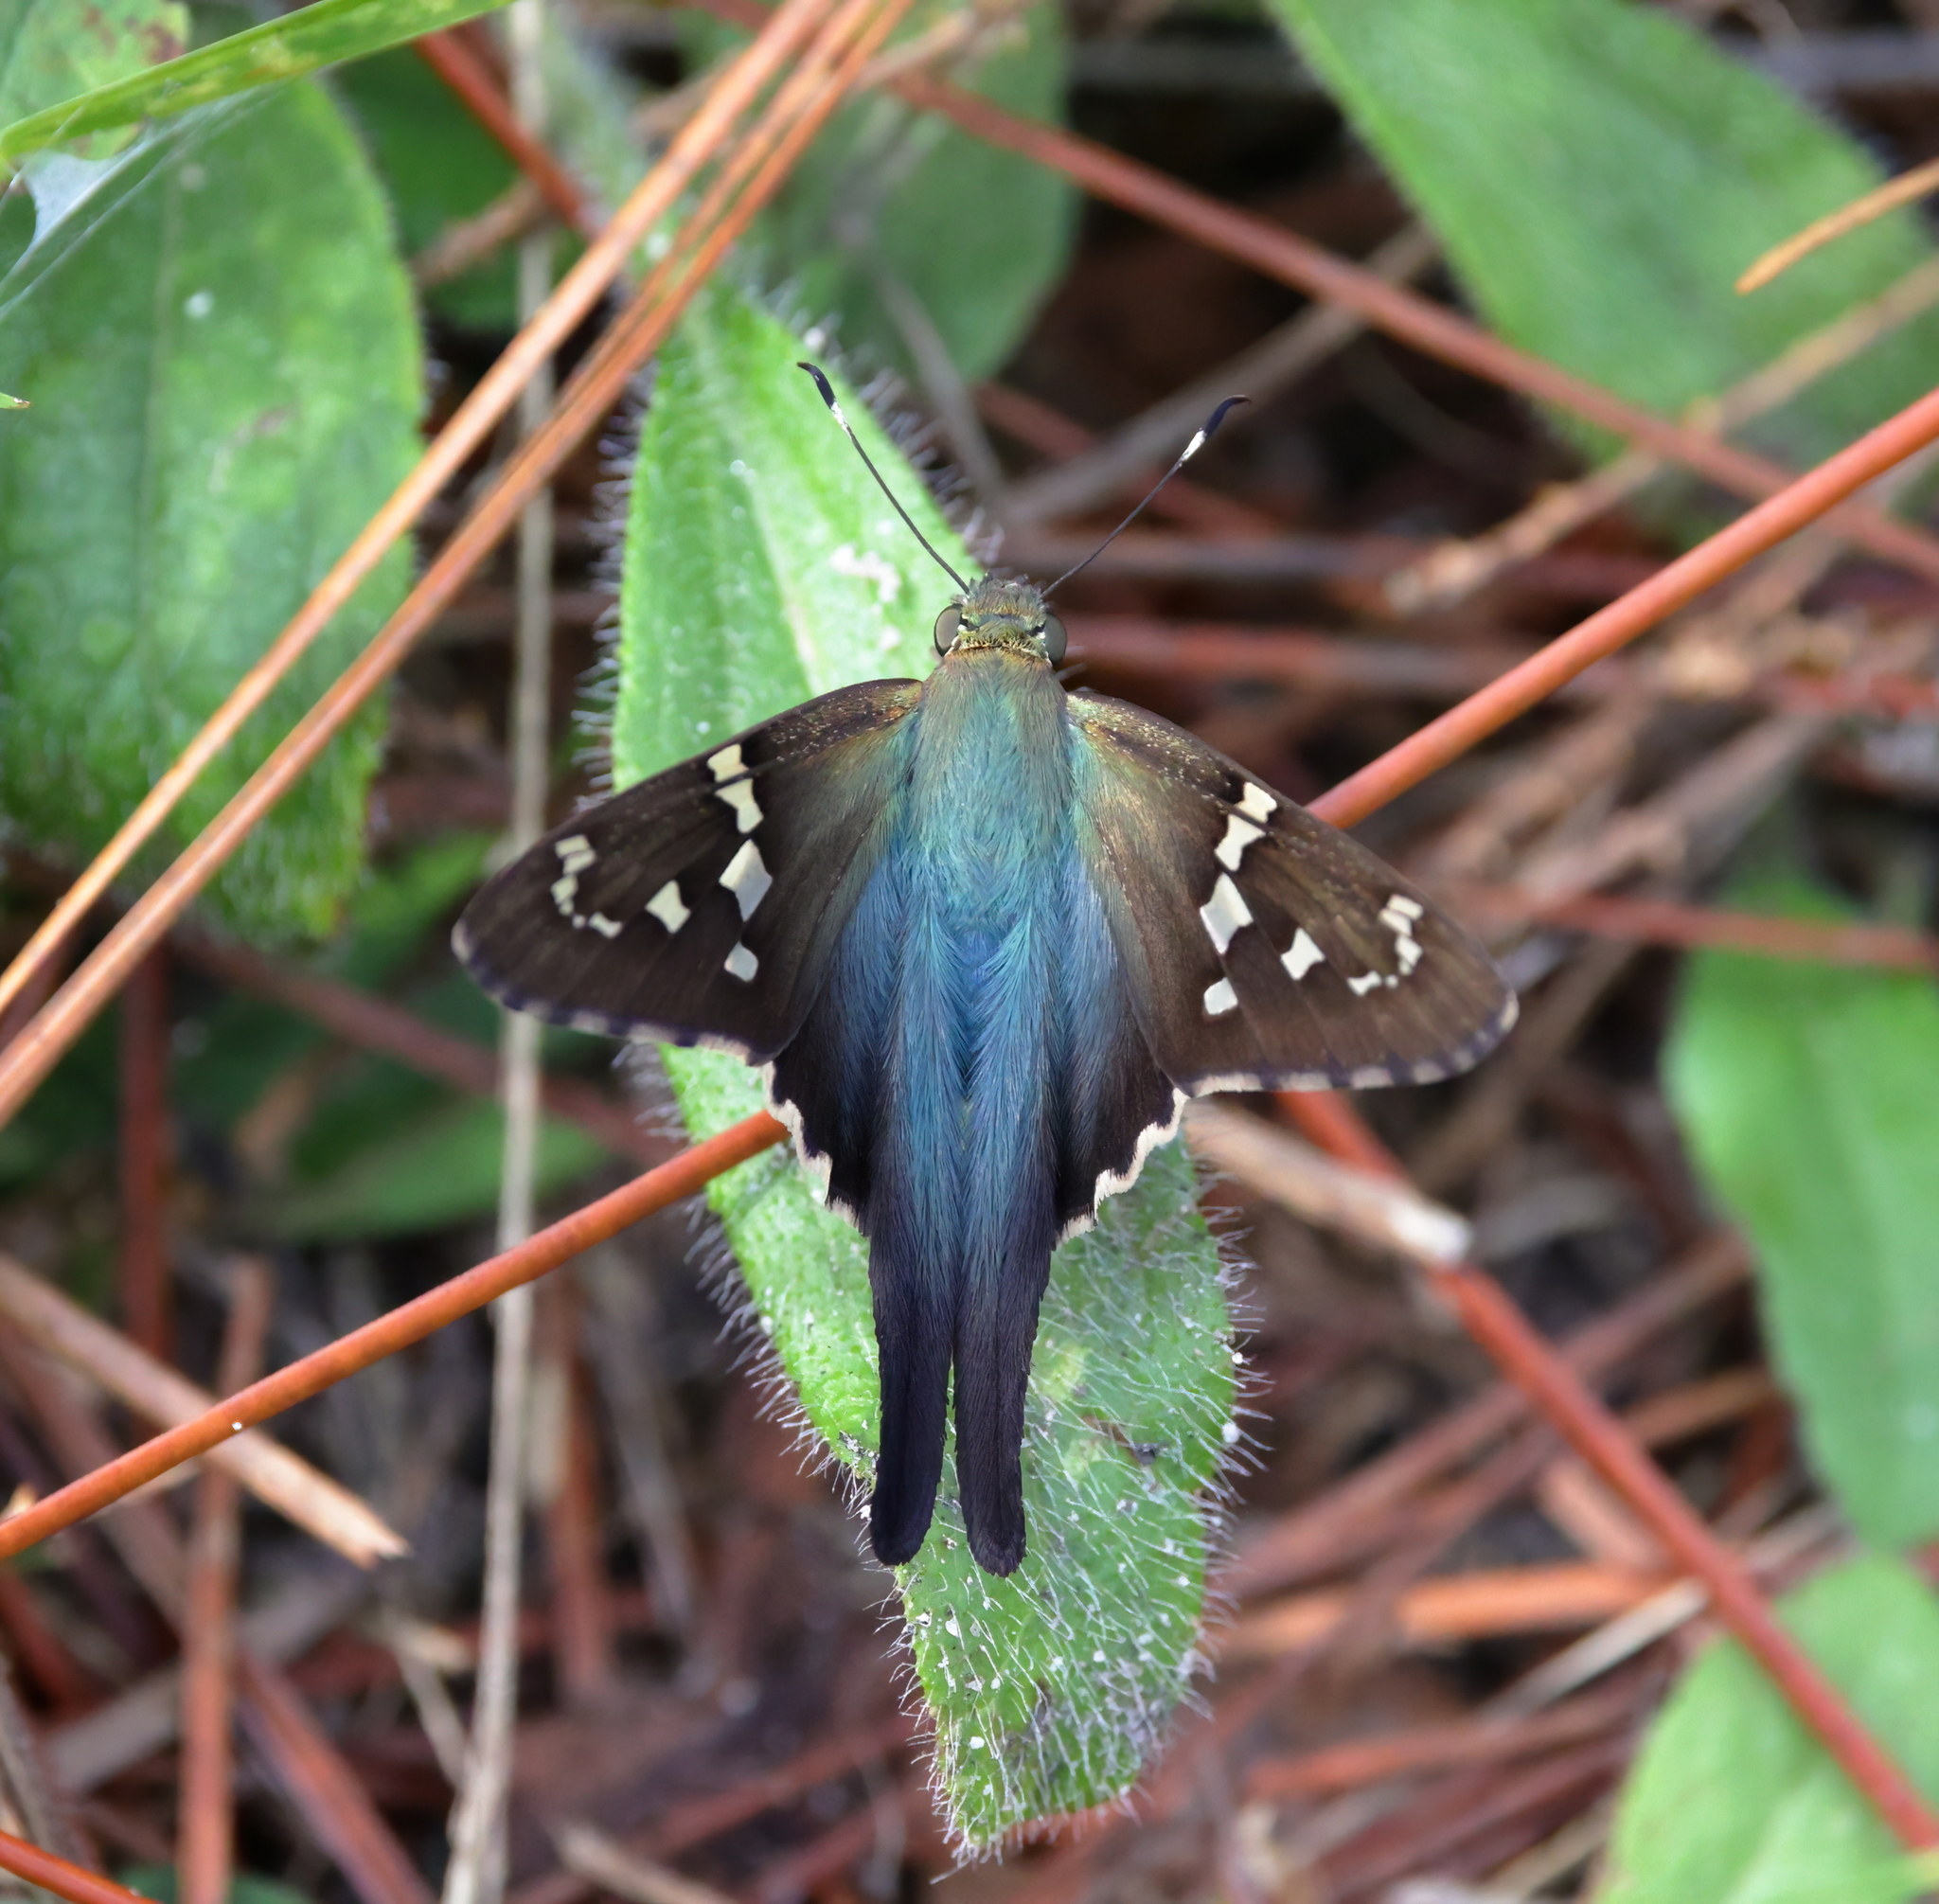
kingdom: Animalia
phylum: Arthropoda
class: Insecta
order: Lepidoptera
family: Hesperiidae
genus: Urbanus
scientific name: Urbanus proteus
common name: Long-tailed skipper
